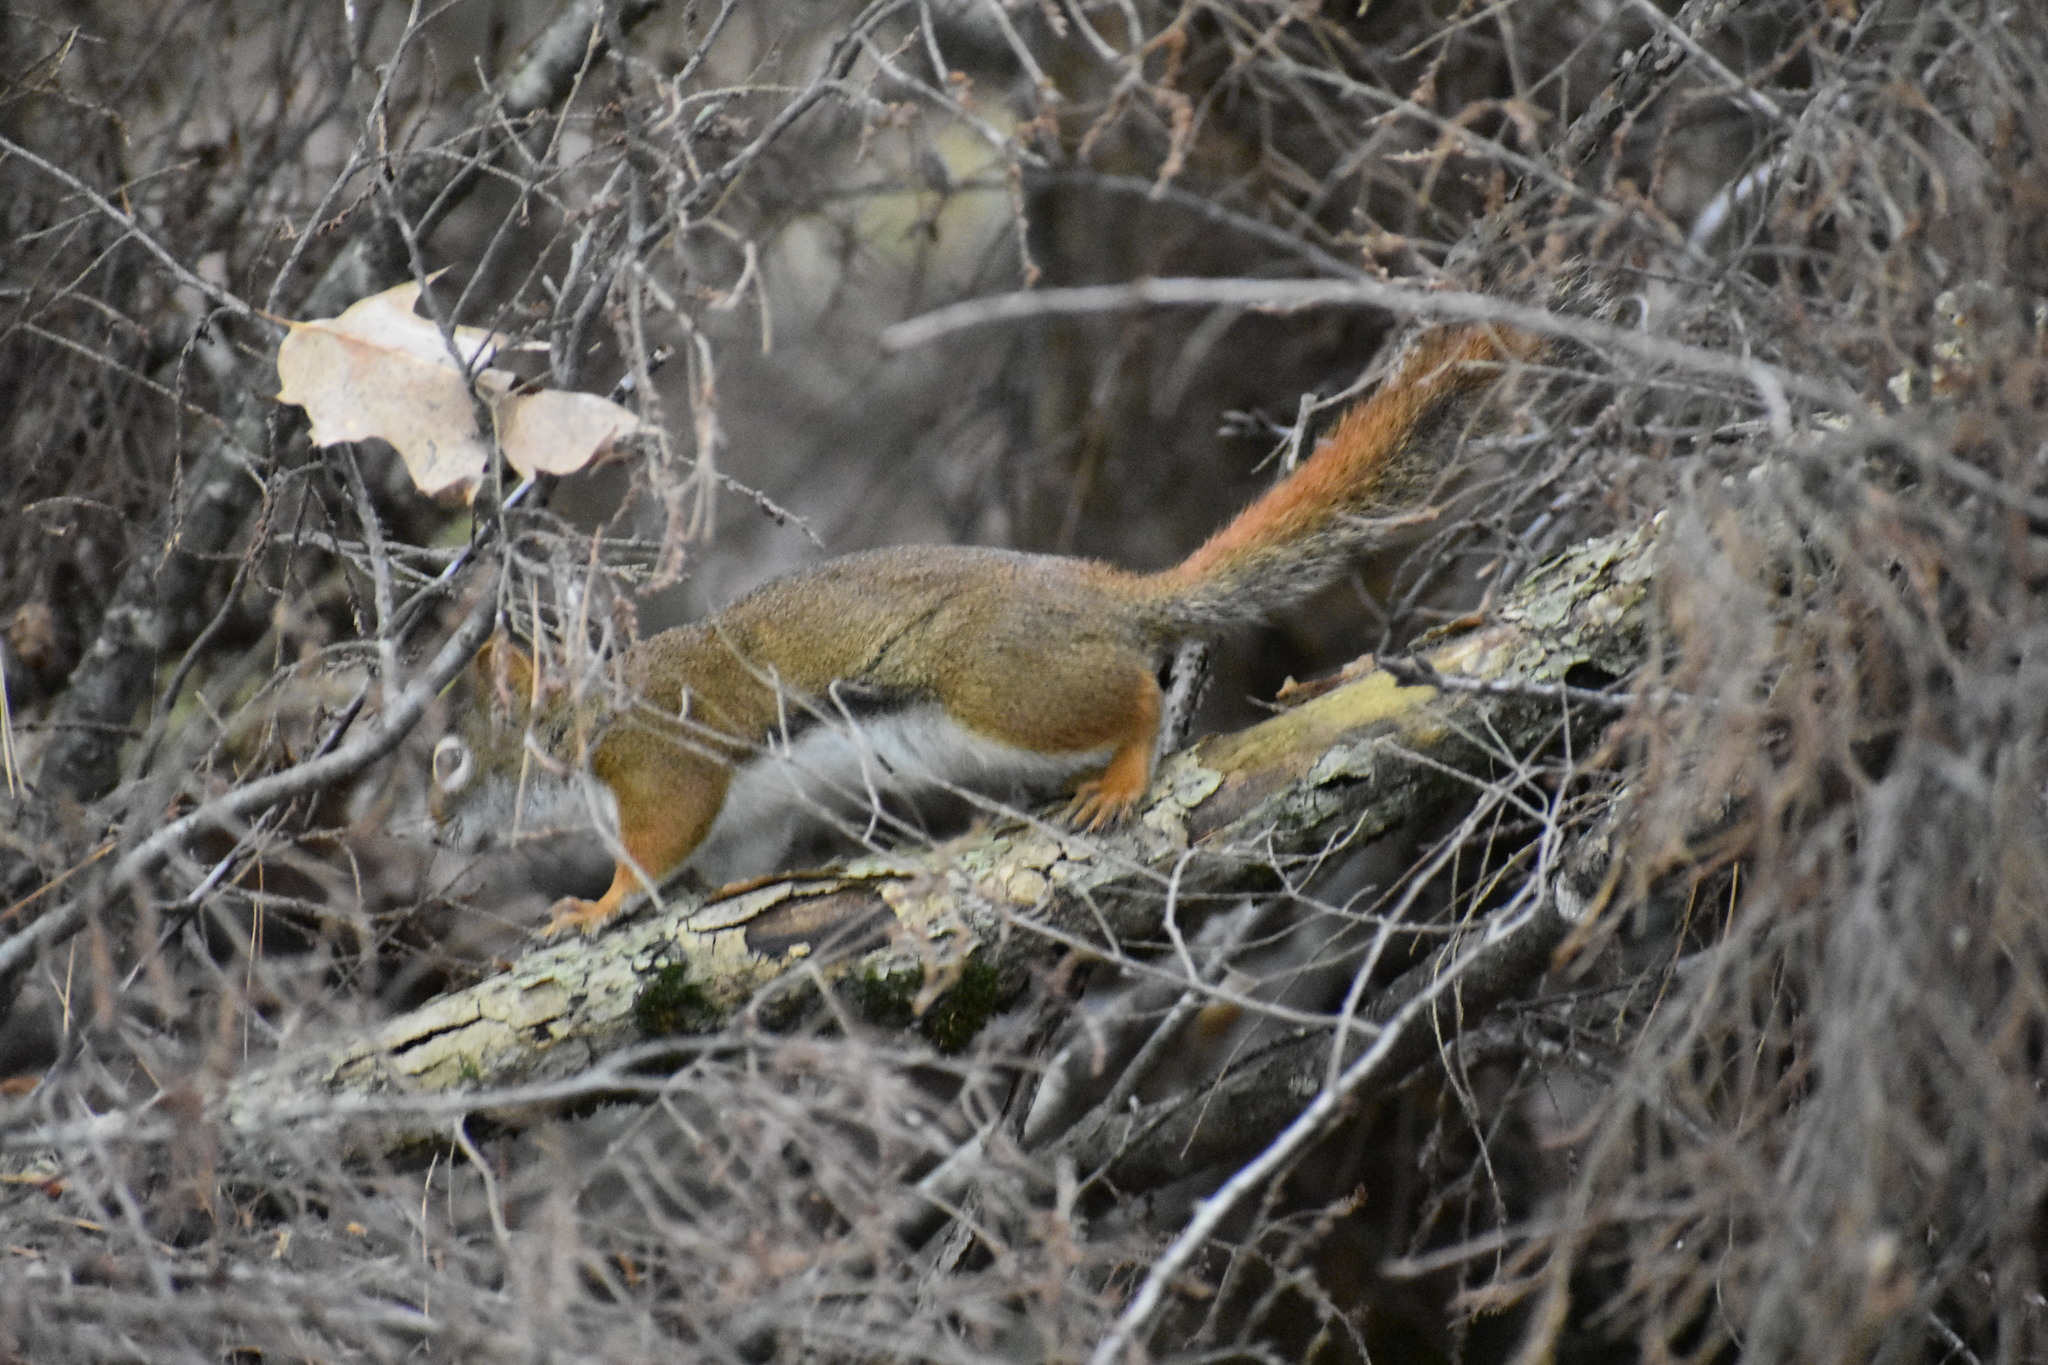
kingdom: Animalia
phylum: Chordata
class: Mammalia
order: Rodentia
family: Sciuridae
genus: Tamiasciurus
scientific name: Tamiasciurus hudsonicus
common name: Red squirrel
